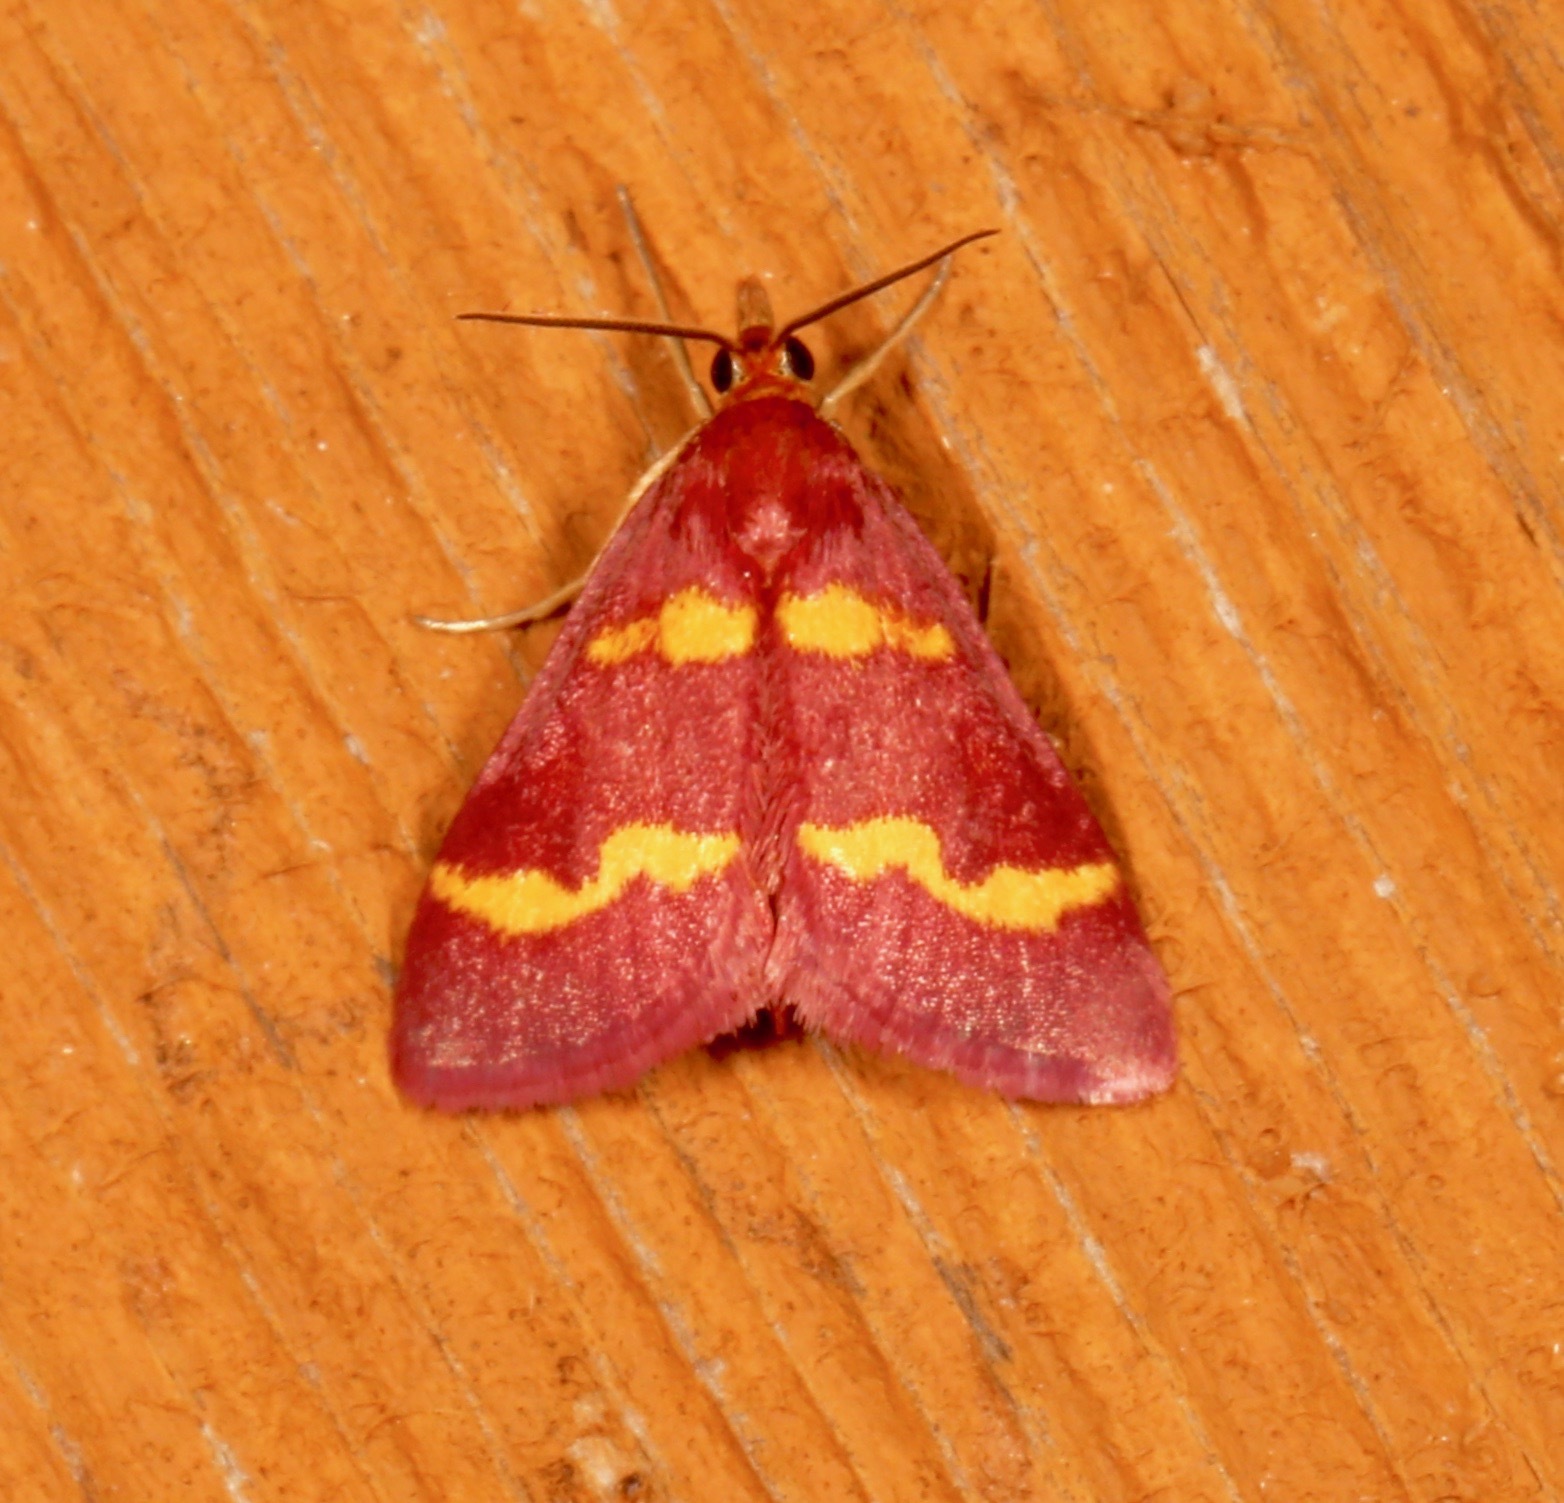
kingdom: Animalia
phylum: Arthropoda
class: Insecta
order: Lepidoptera
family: Crambidae
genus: Pyrausta
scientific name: Pyrausta tyralis
